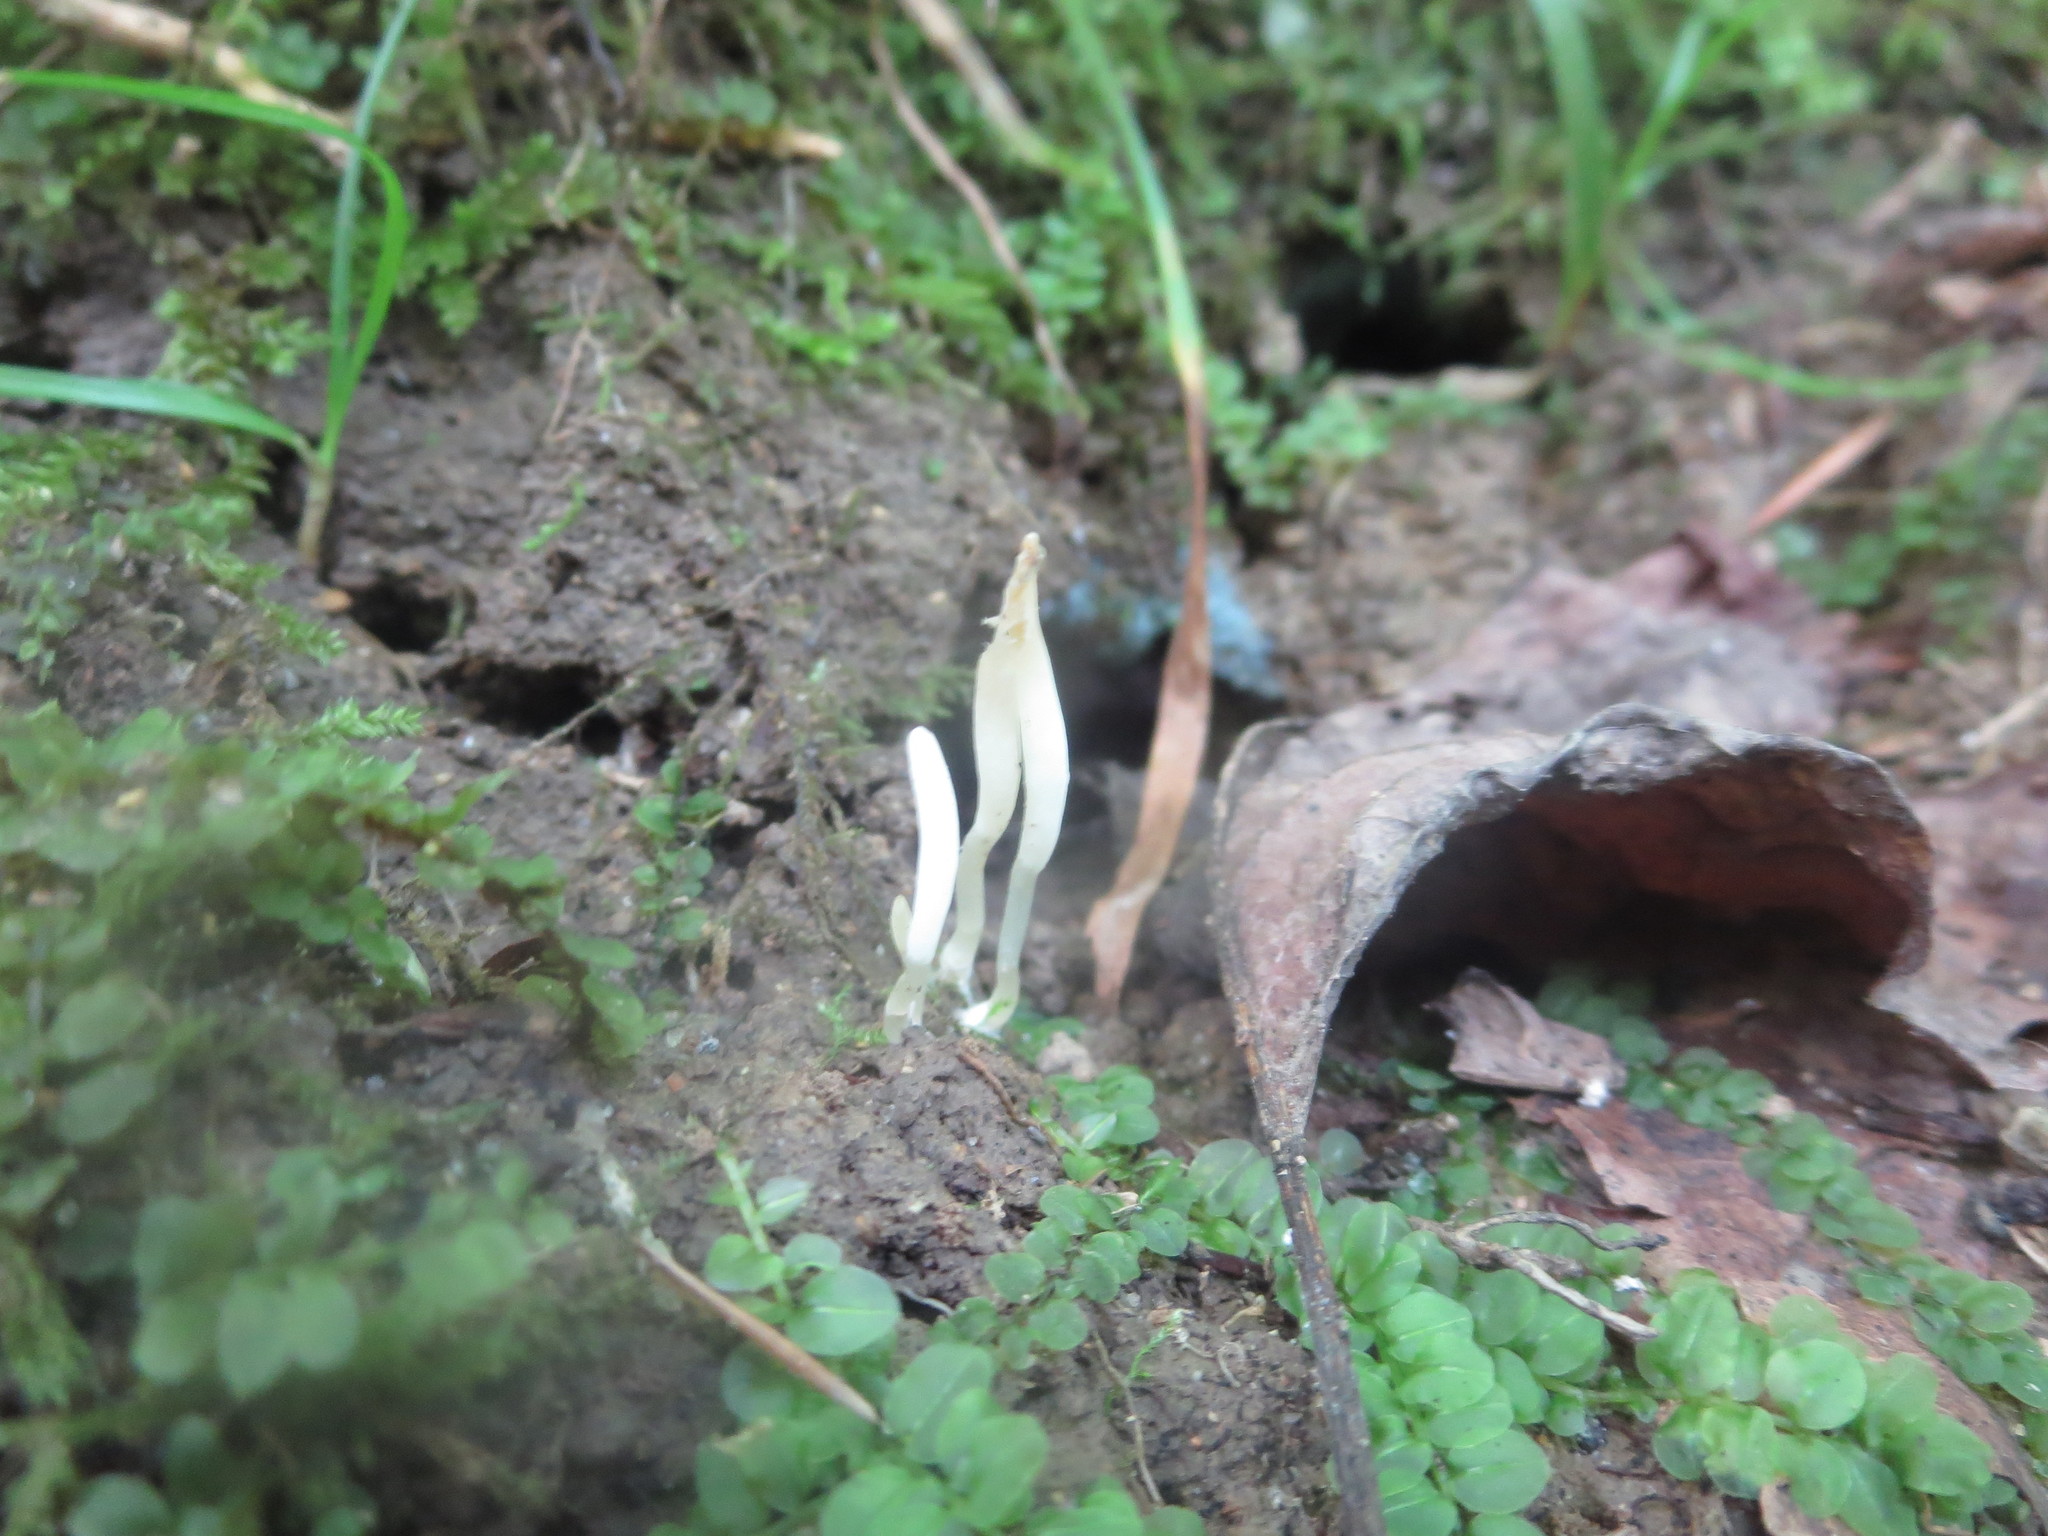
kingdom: Fungi
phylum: Basidiomycota
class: Agaricomycetes
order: Agaricales
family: Clavariaceae
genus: Clavaria
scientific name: Clavaria acuta
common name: Pointed club
